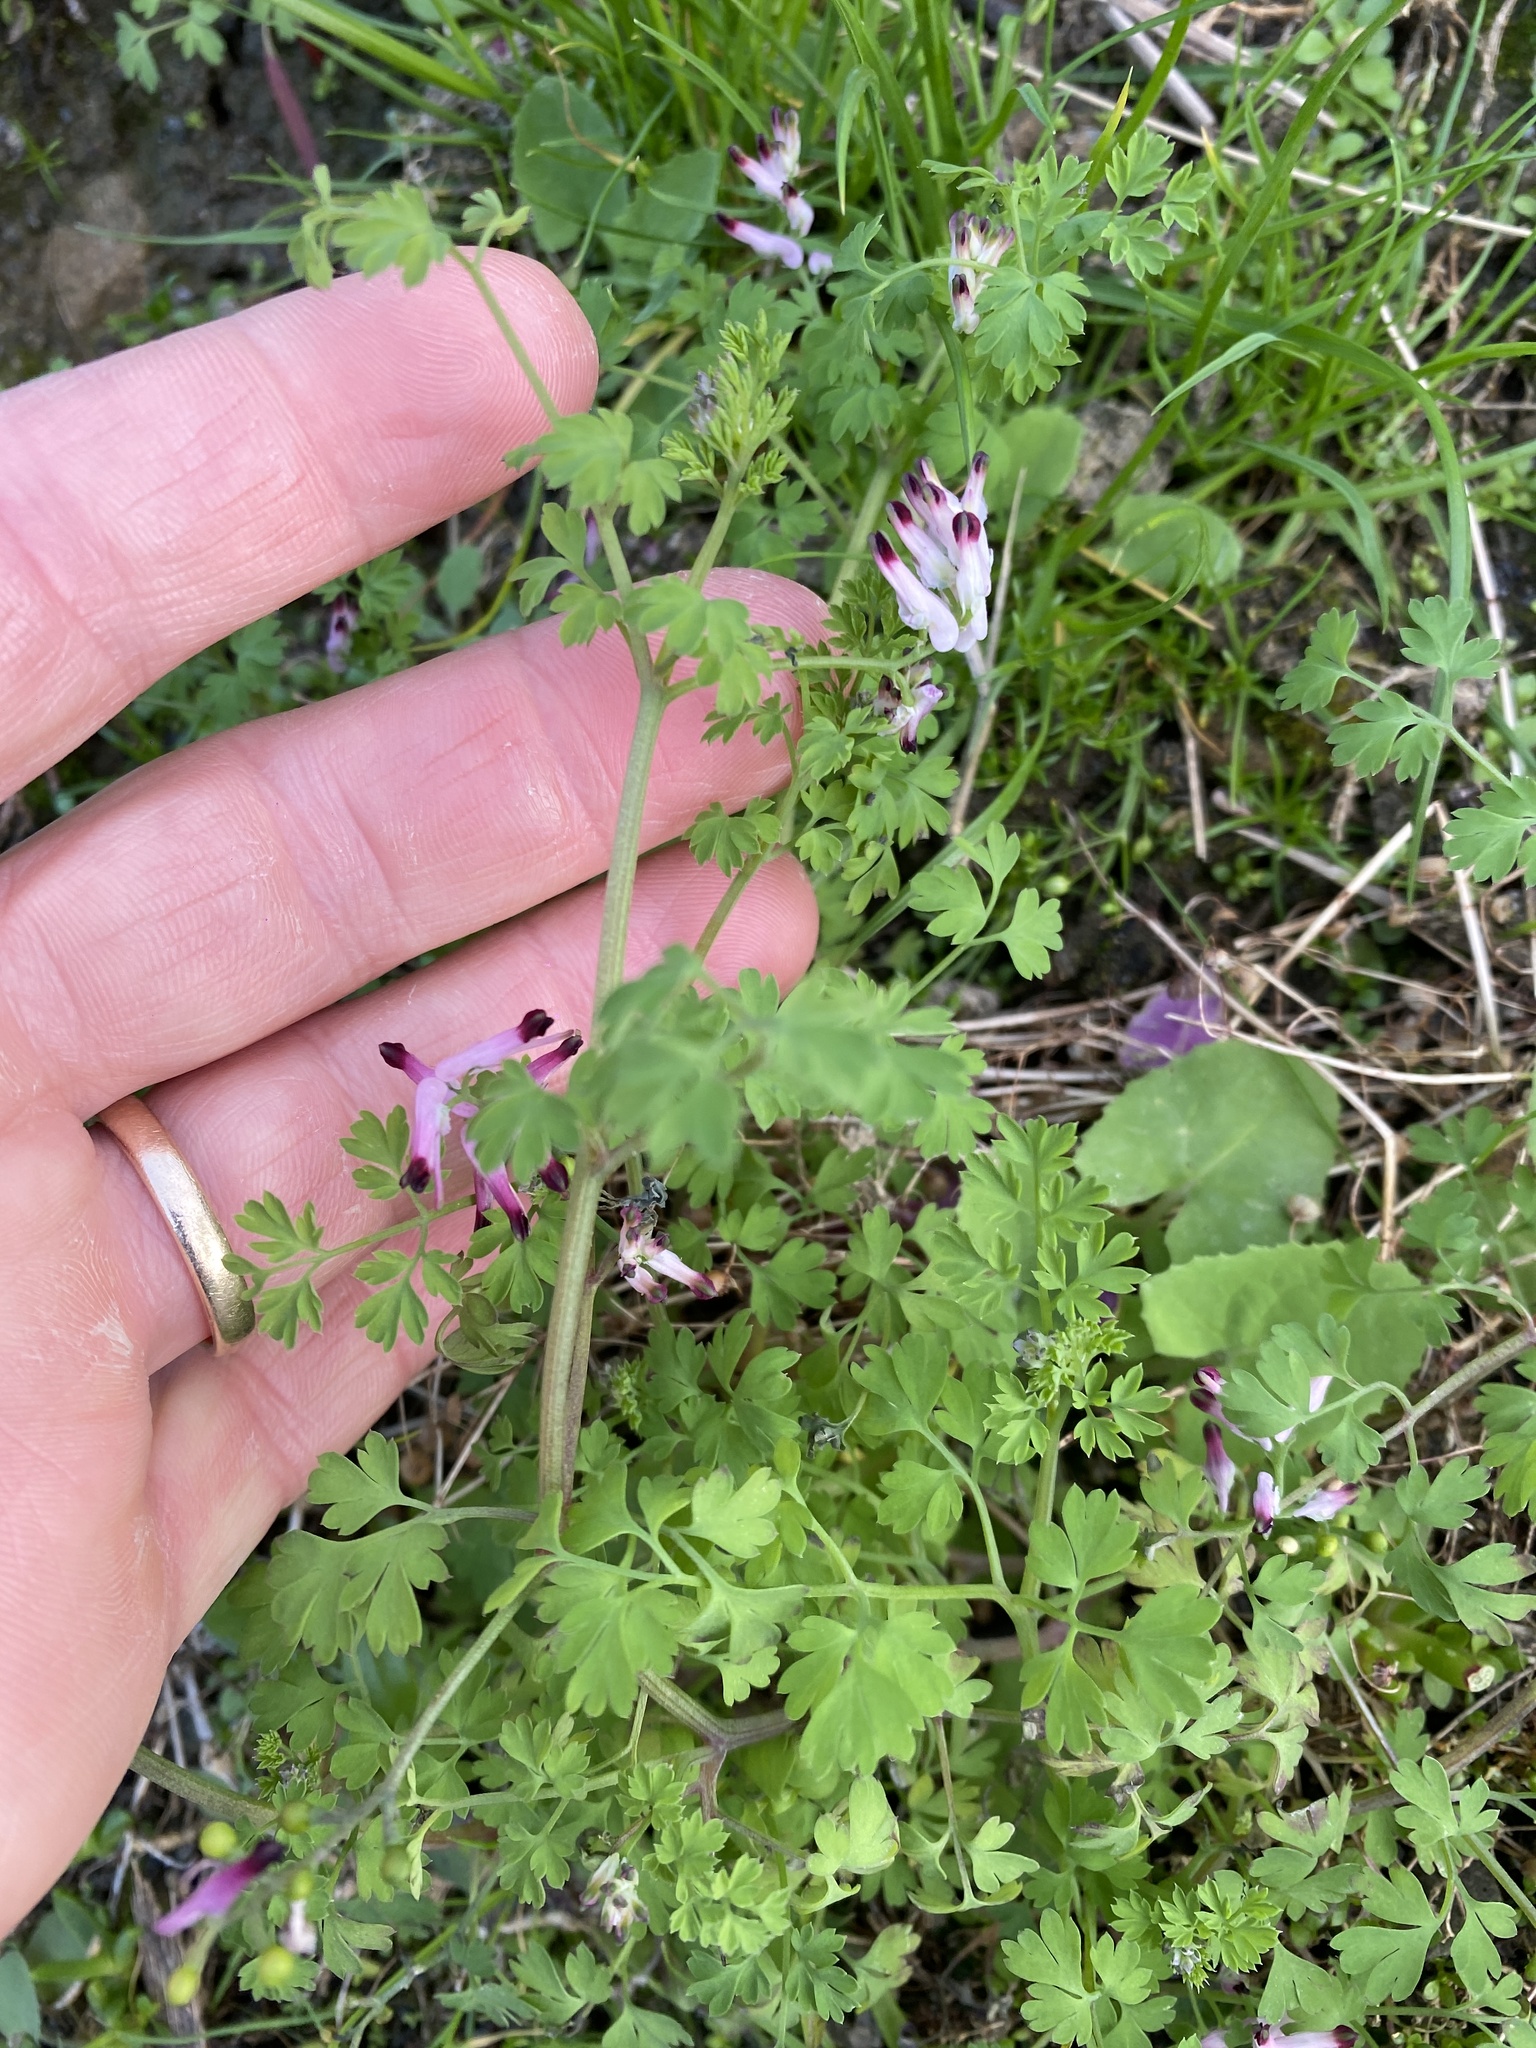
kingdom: Plantae
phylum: Tracheophyta
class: Magnoliopsida
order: Ranunculales
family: Papaveraceae
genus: Fumaria
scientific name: Fumaria muralis
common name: Common ramping-fumitory
